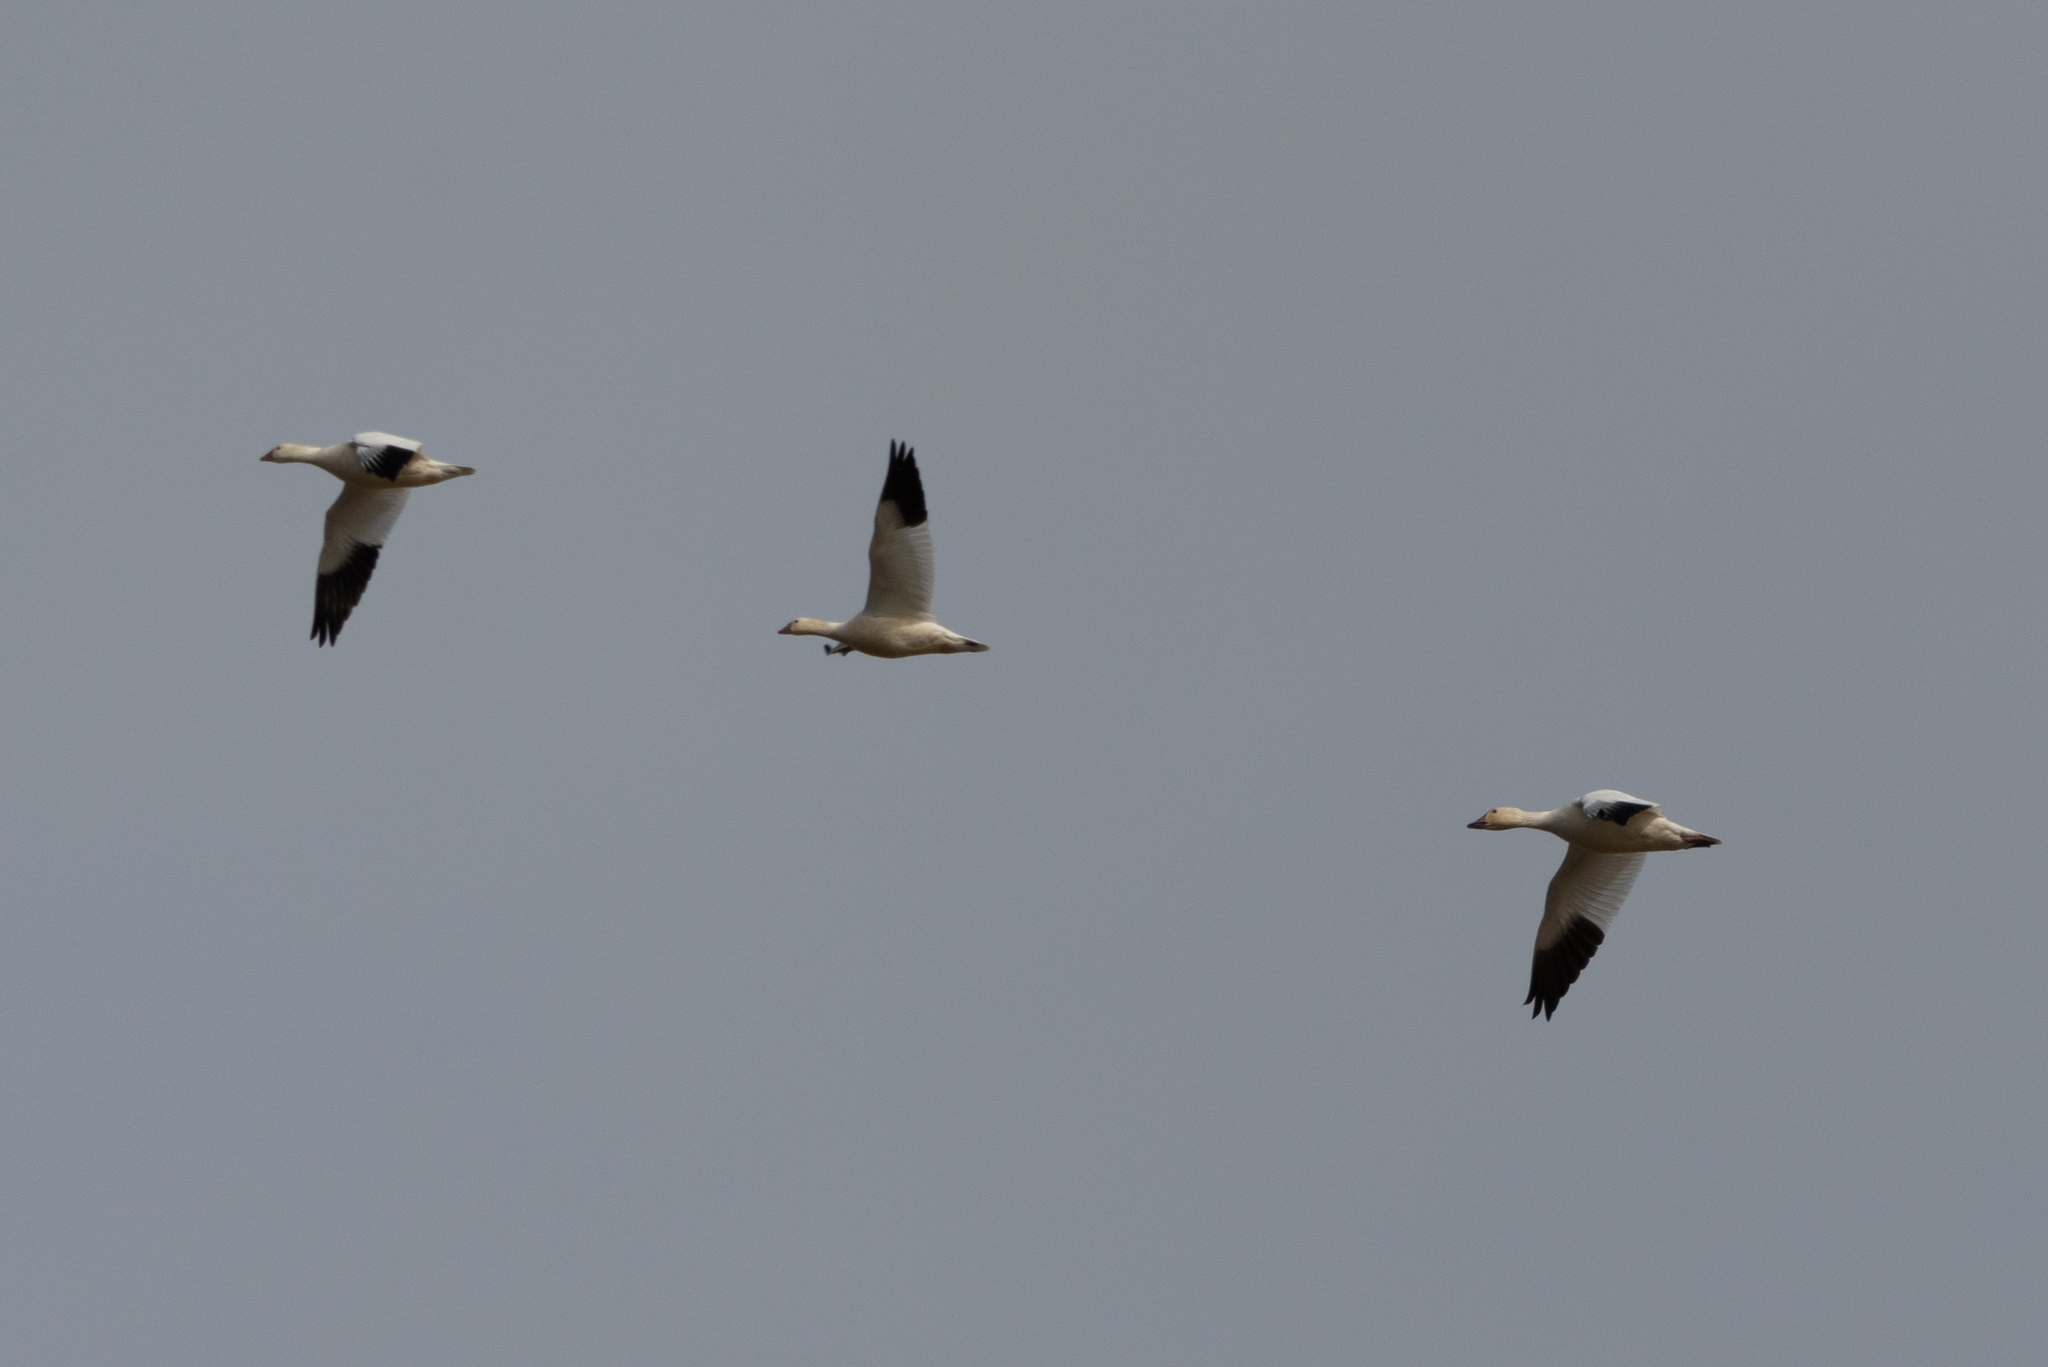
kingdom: Animalia
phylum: Chordata
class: Aves
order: Anseriformes
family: Anatidae
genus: Anser
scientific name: Anser caerulescens
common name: Snow goose
